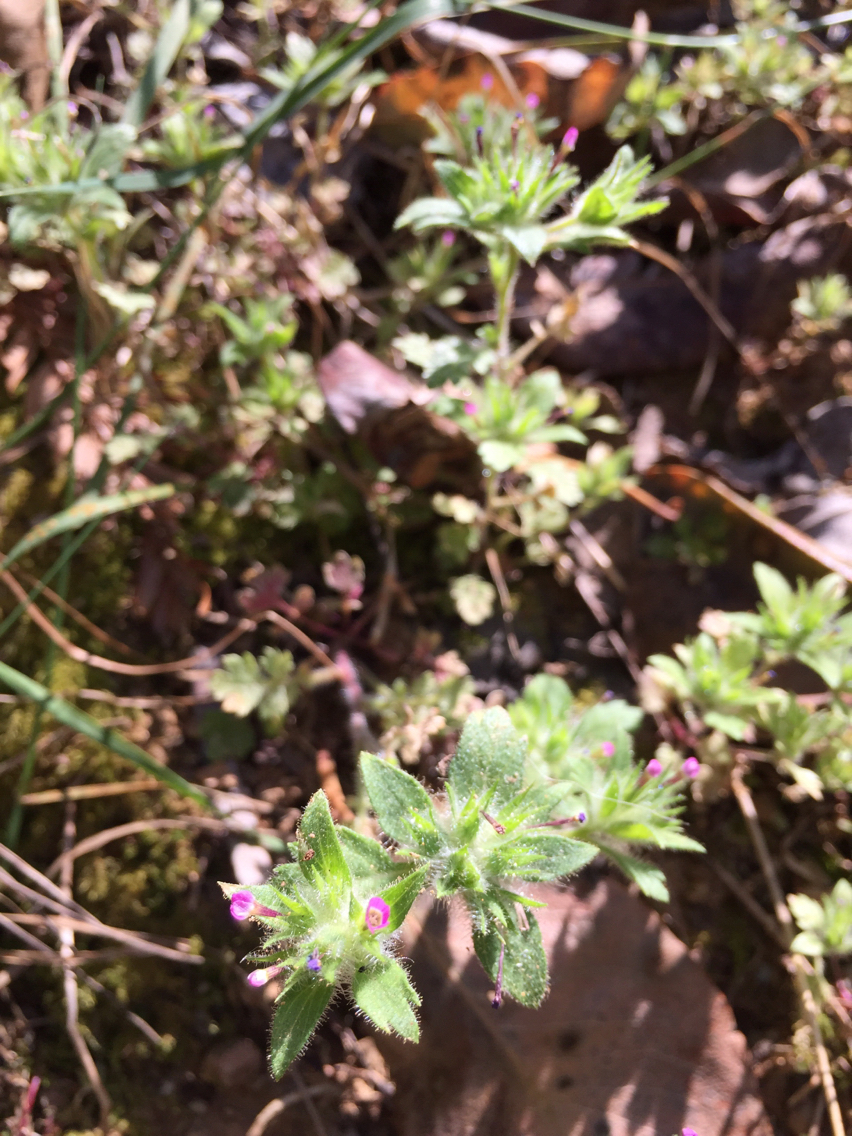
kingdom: Plantae
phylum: Tracheophyta
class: Magnoliopsida
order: Ericales
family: Polemoniaceae
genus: Collomia
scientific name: Collomia heterophylla
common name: Variable-leaved collomia
